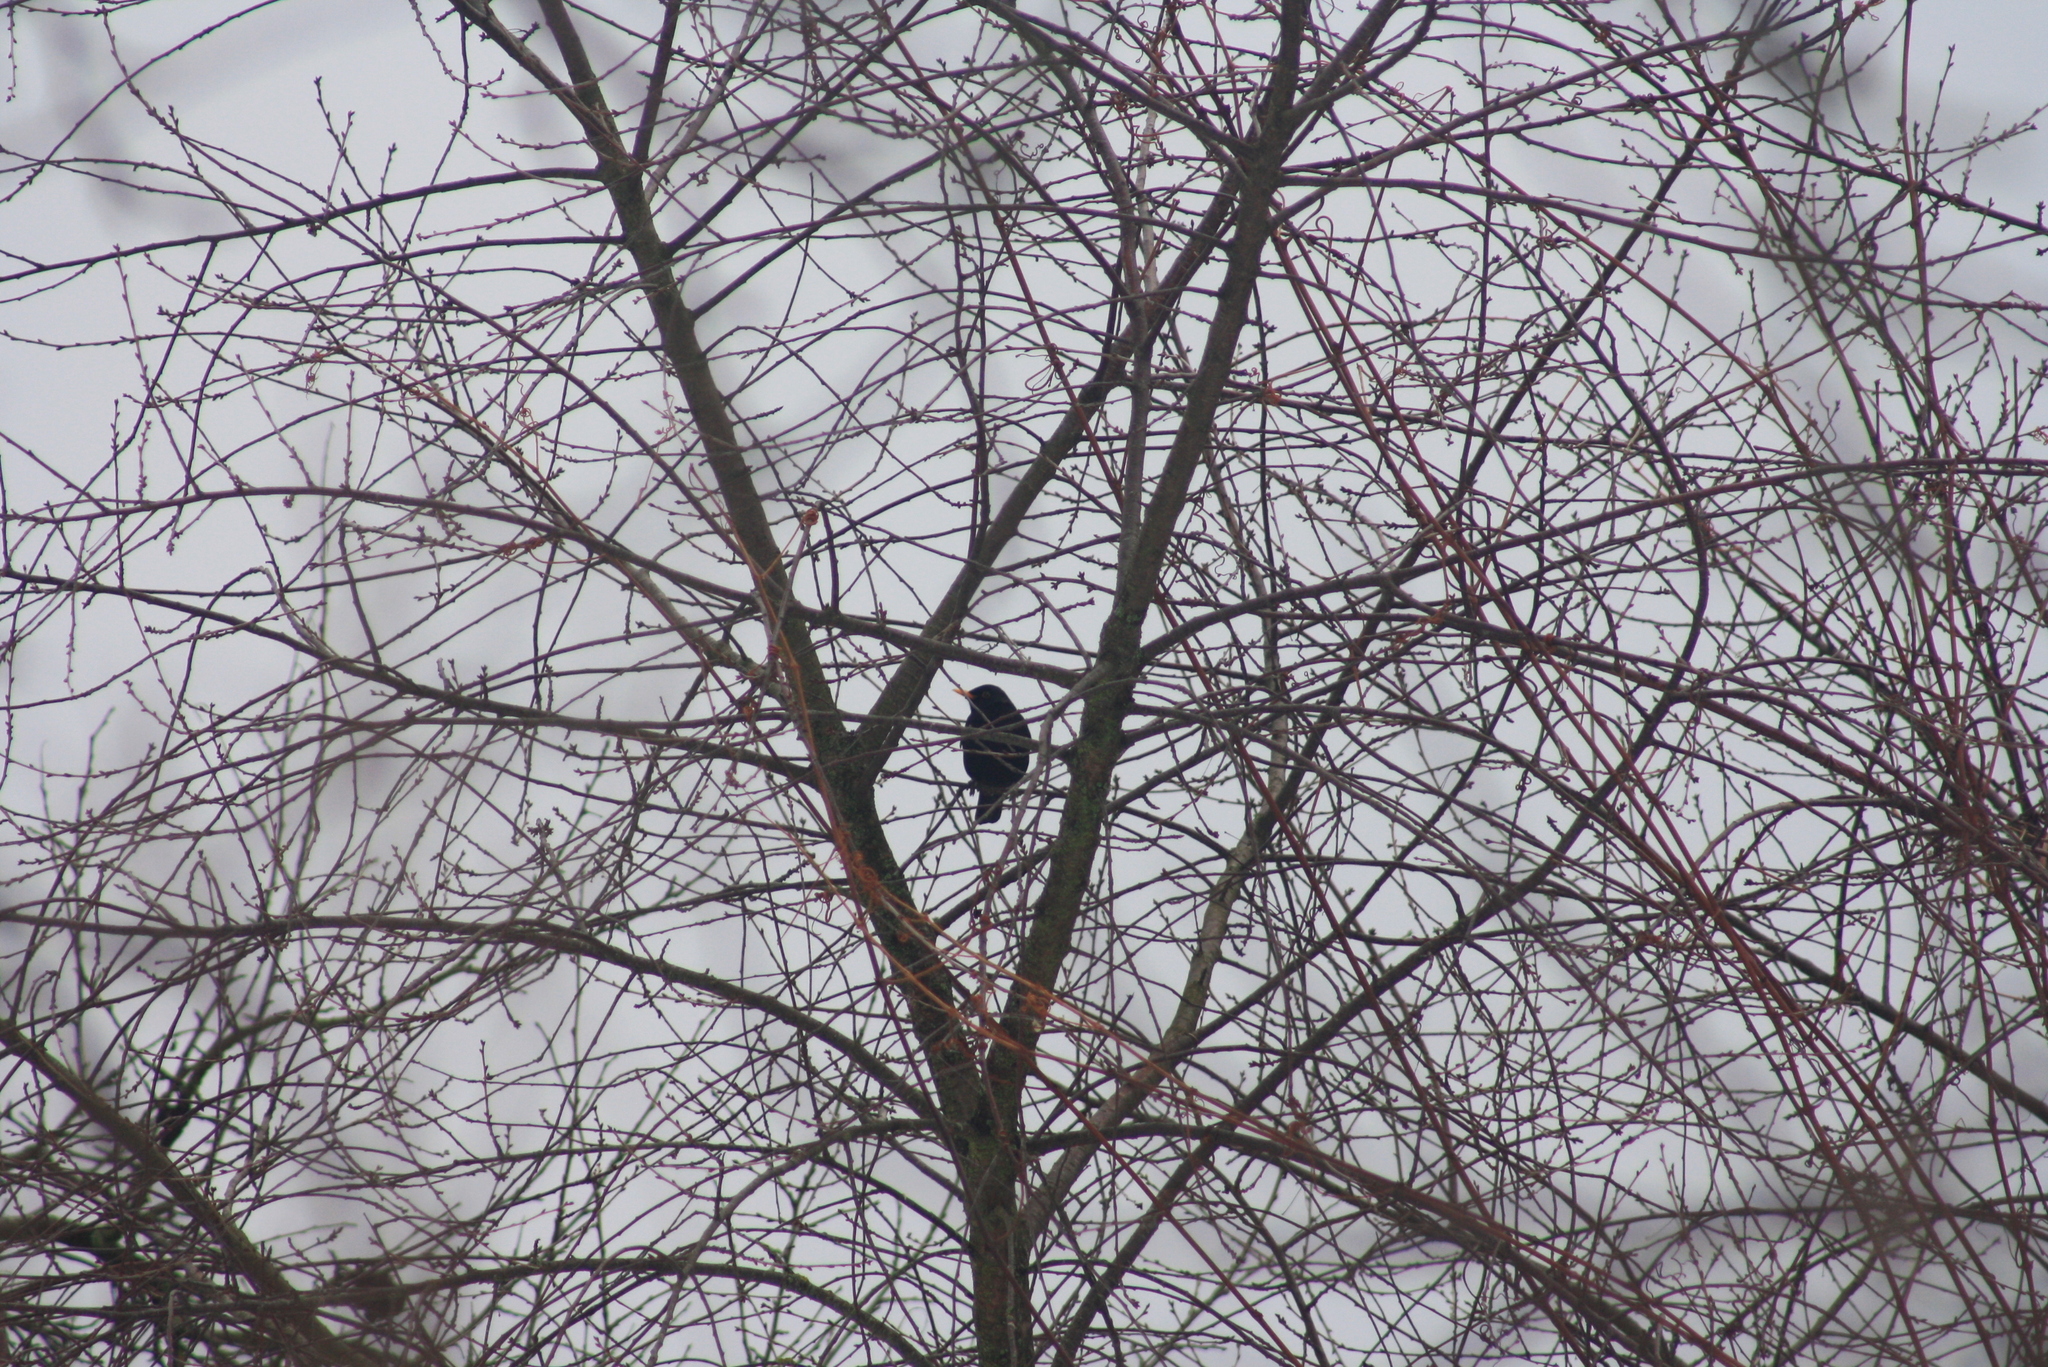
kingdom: Animalia
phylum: Chordata
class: Aves
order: Passeriformes
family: Turdidae
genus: Turdus
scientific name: Turdus merula
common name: Common blackbird
